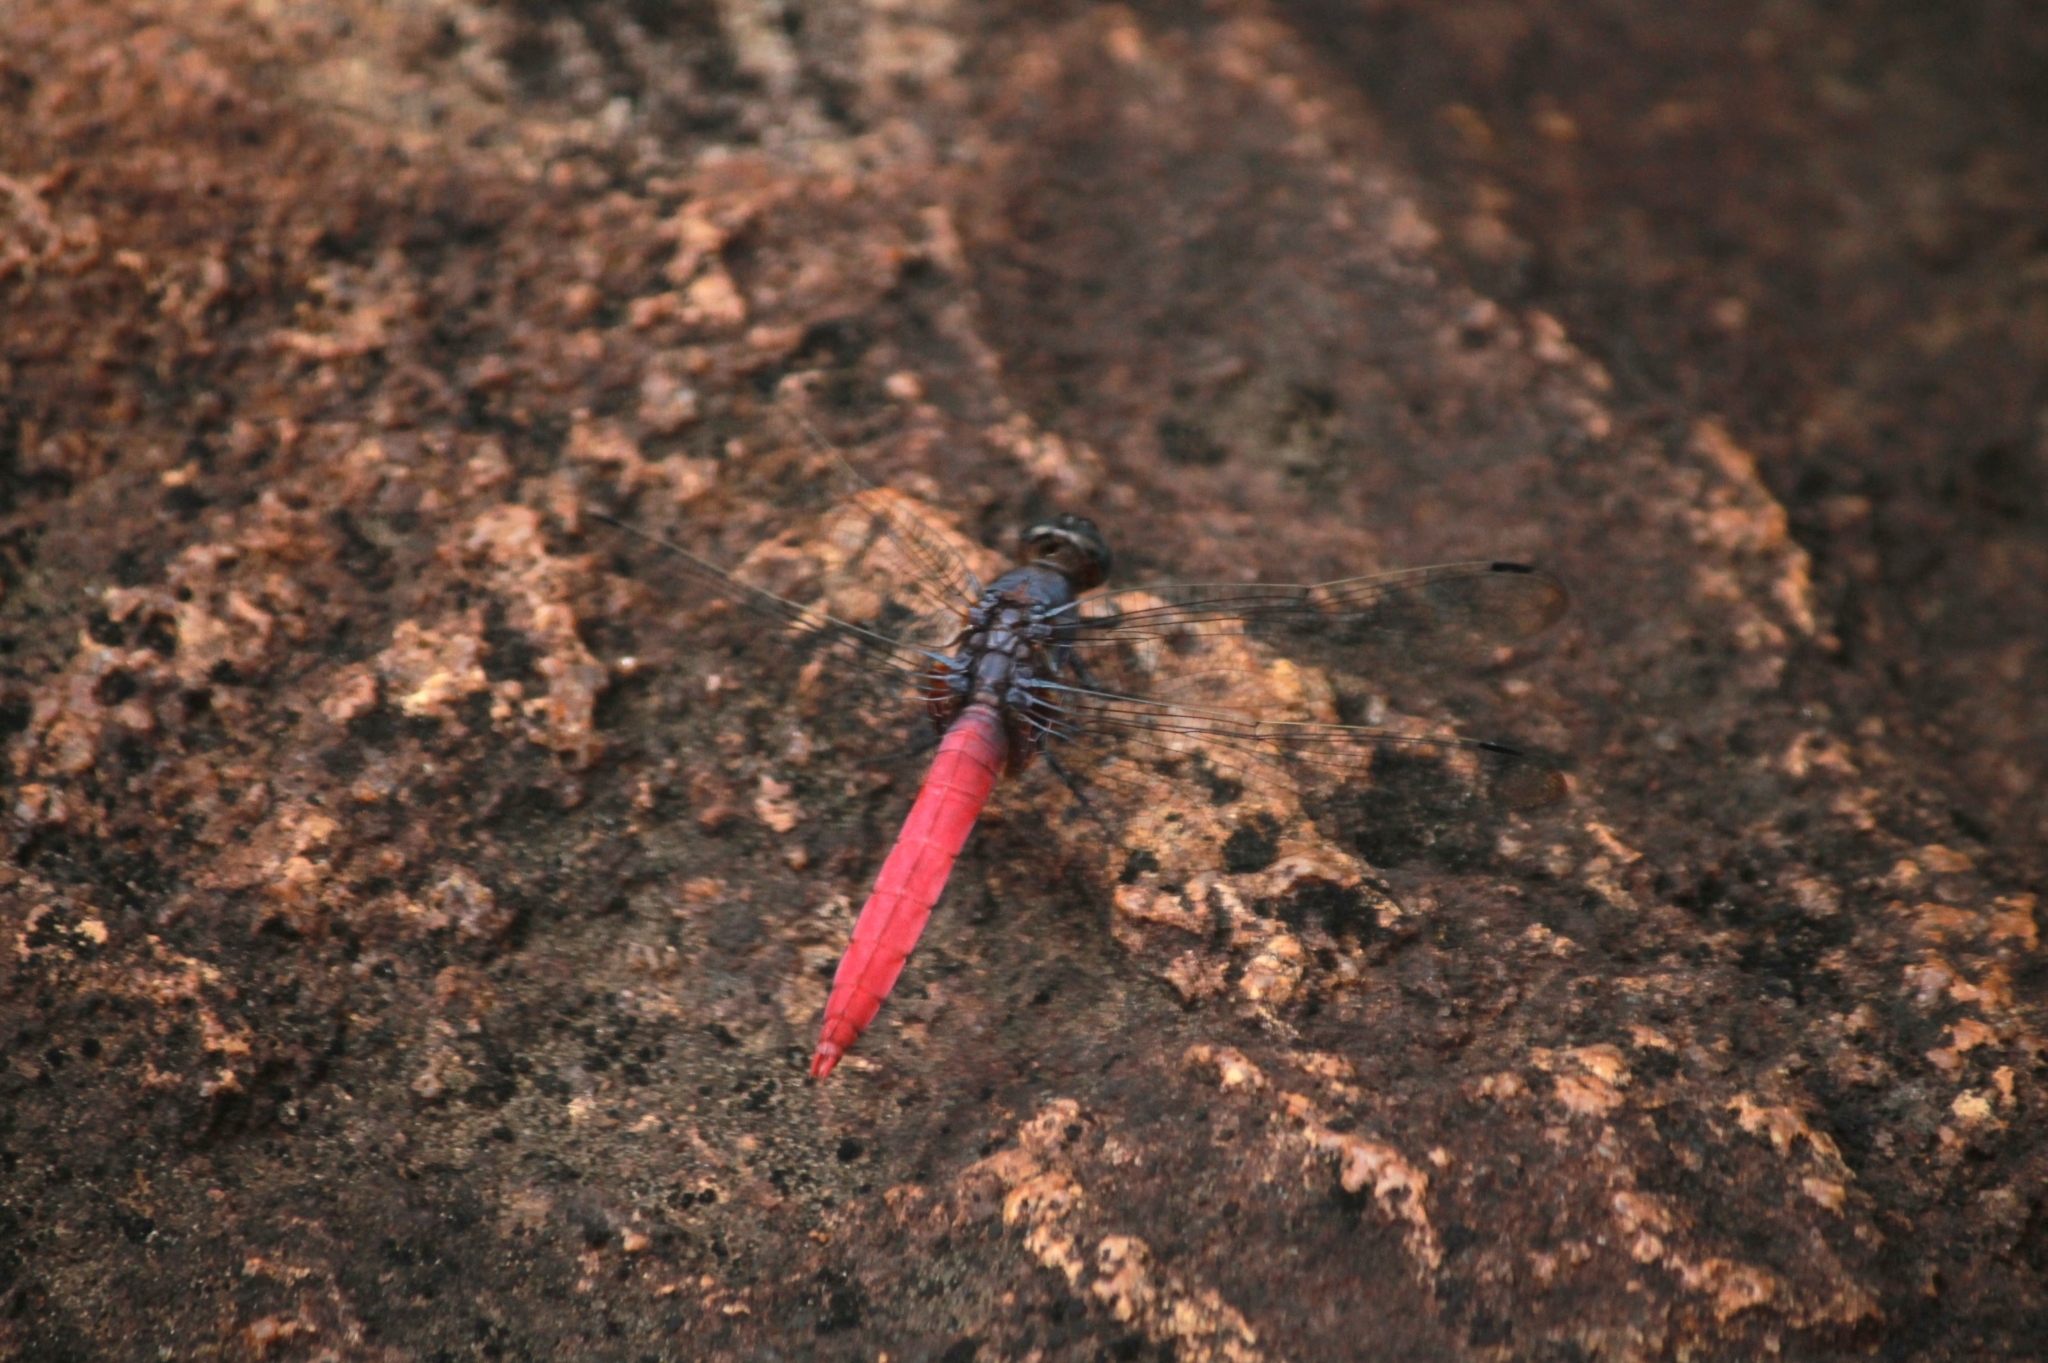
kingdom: Animalia
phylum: Arthropoda
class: Insecta
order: Odonata
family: Libellulidae
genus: Orthetrum
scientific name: Orthetrum pruinosum
